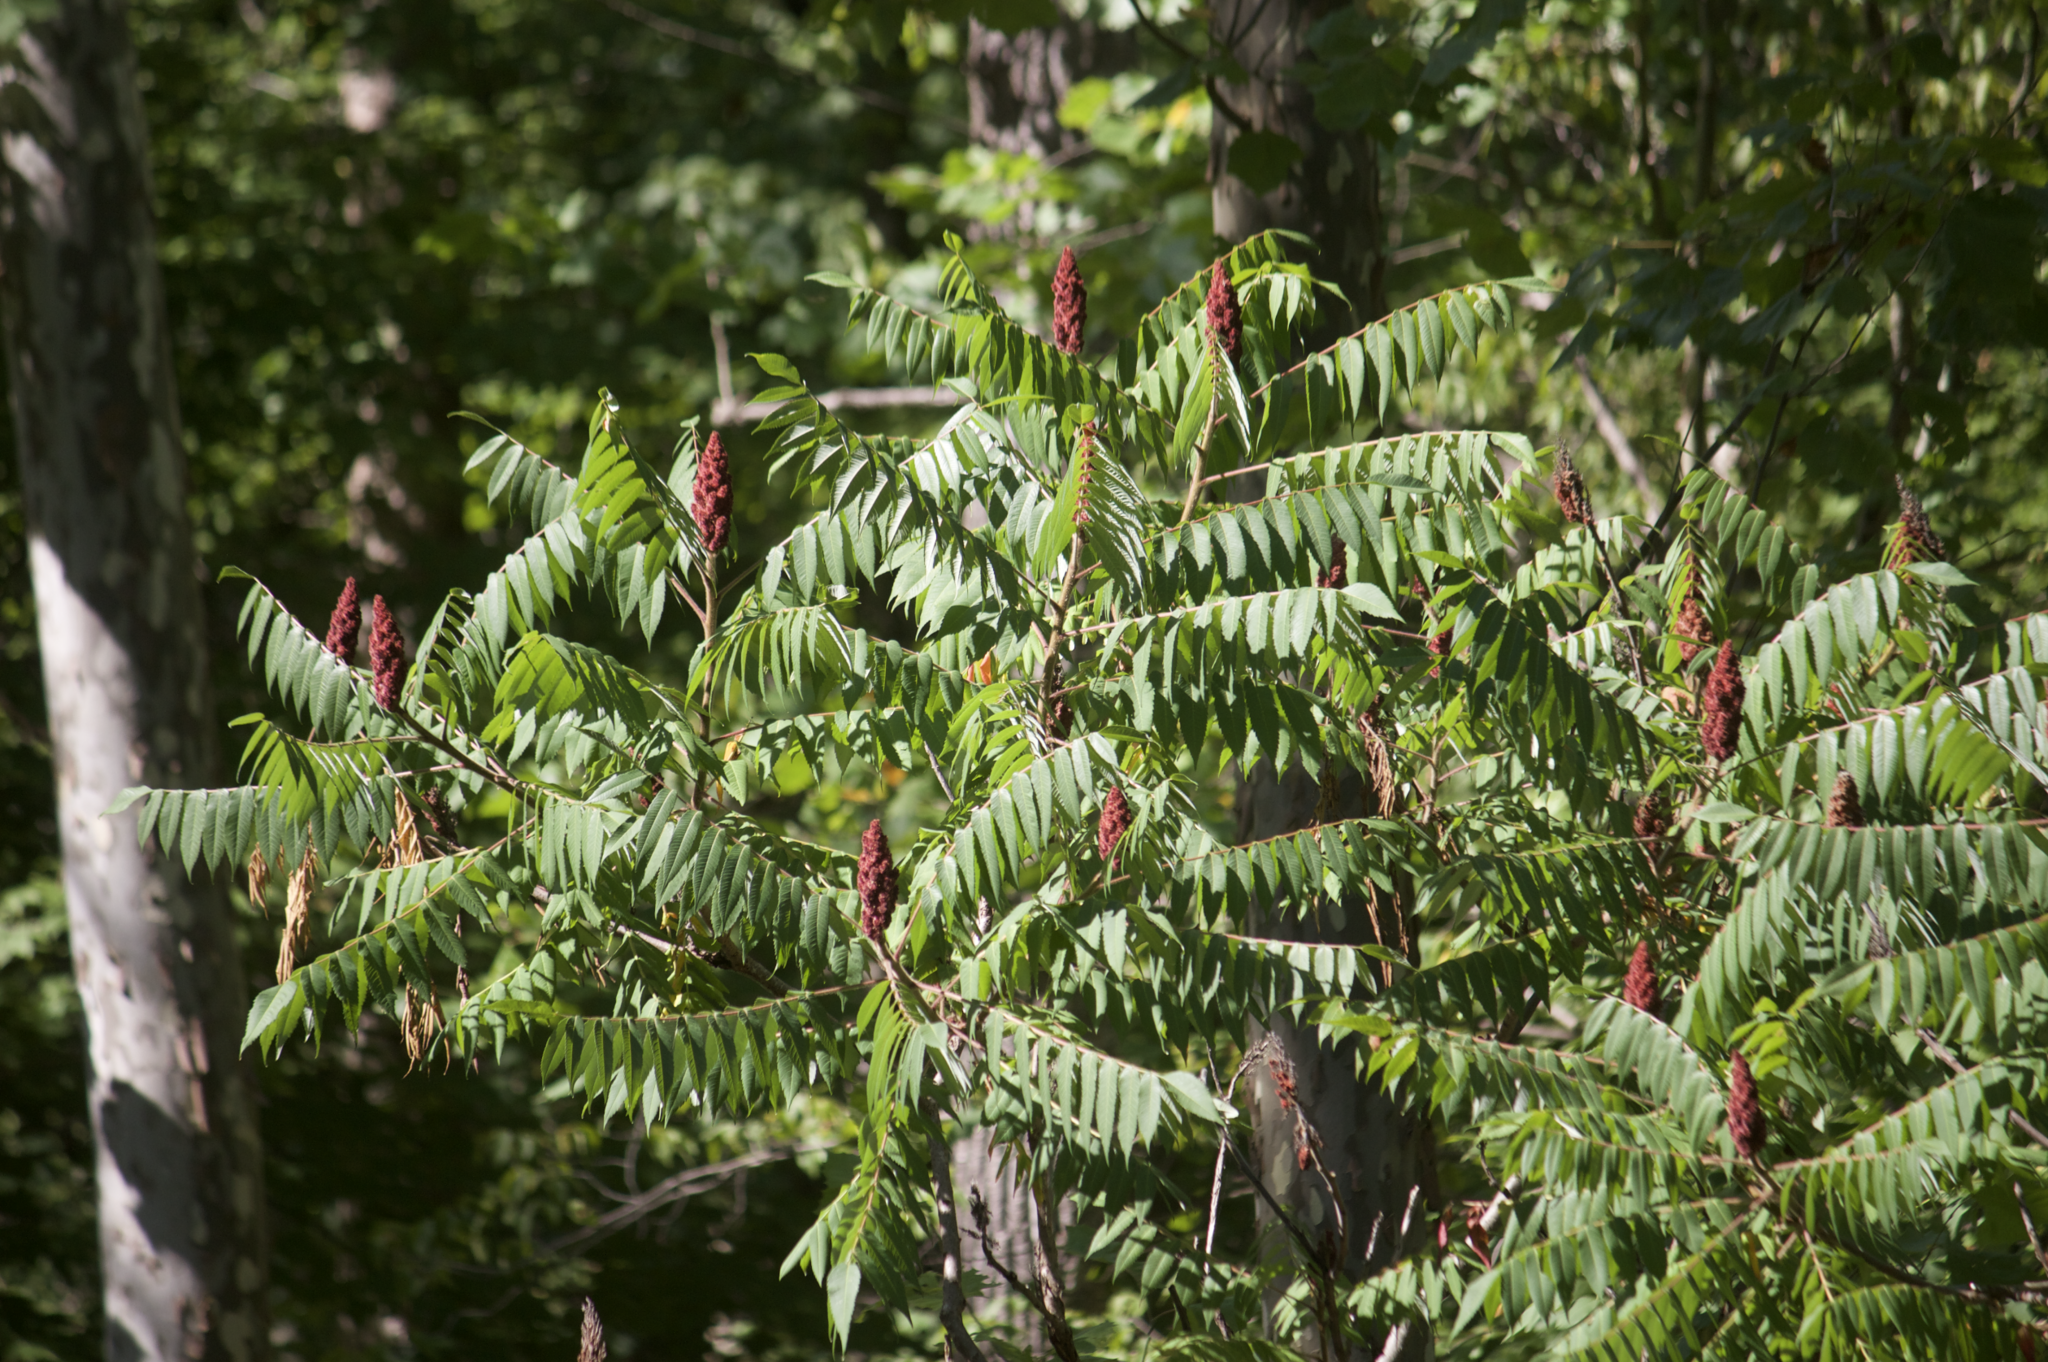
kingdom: Plantae
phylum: Tracheophyta
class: Magnoliopsida
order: Sapindales
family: Anacardiaceae
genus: Rhus
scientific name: Rhus typhina
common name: Staghorn sumac
